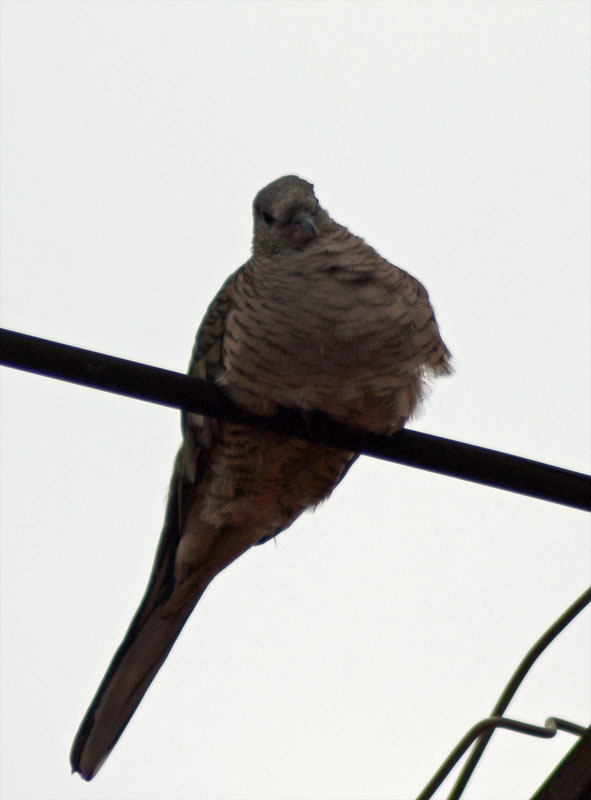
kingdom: Animalia
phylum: Chordata
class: Aves
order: Columbiformes
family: Columbidae
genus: Columbina
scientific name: Columbina inca
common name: Inca dove
